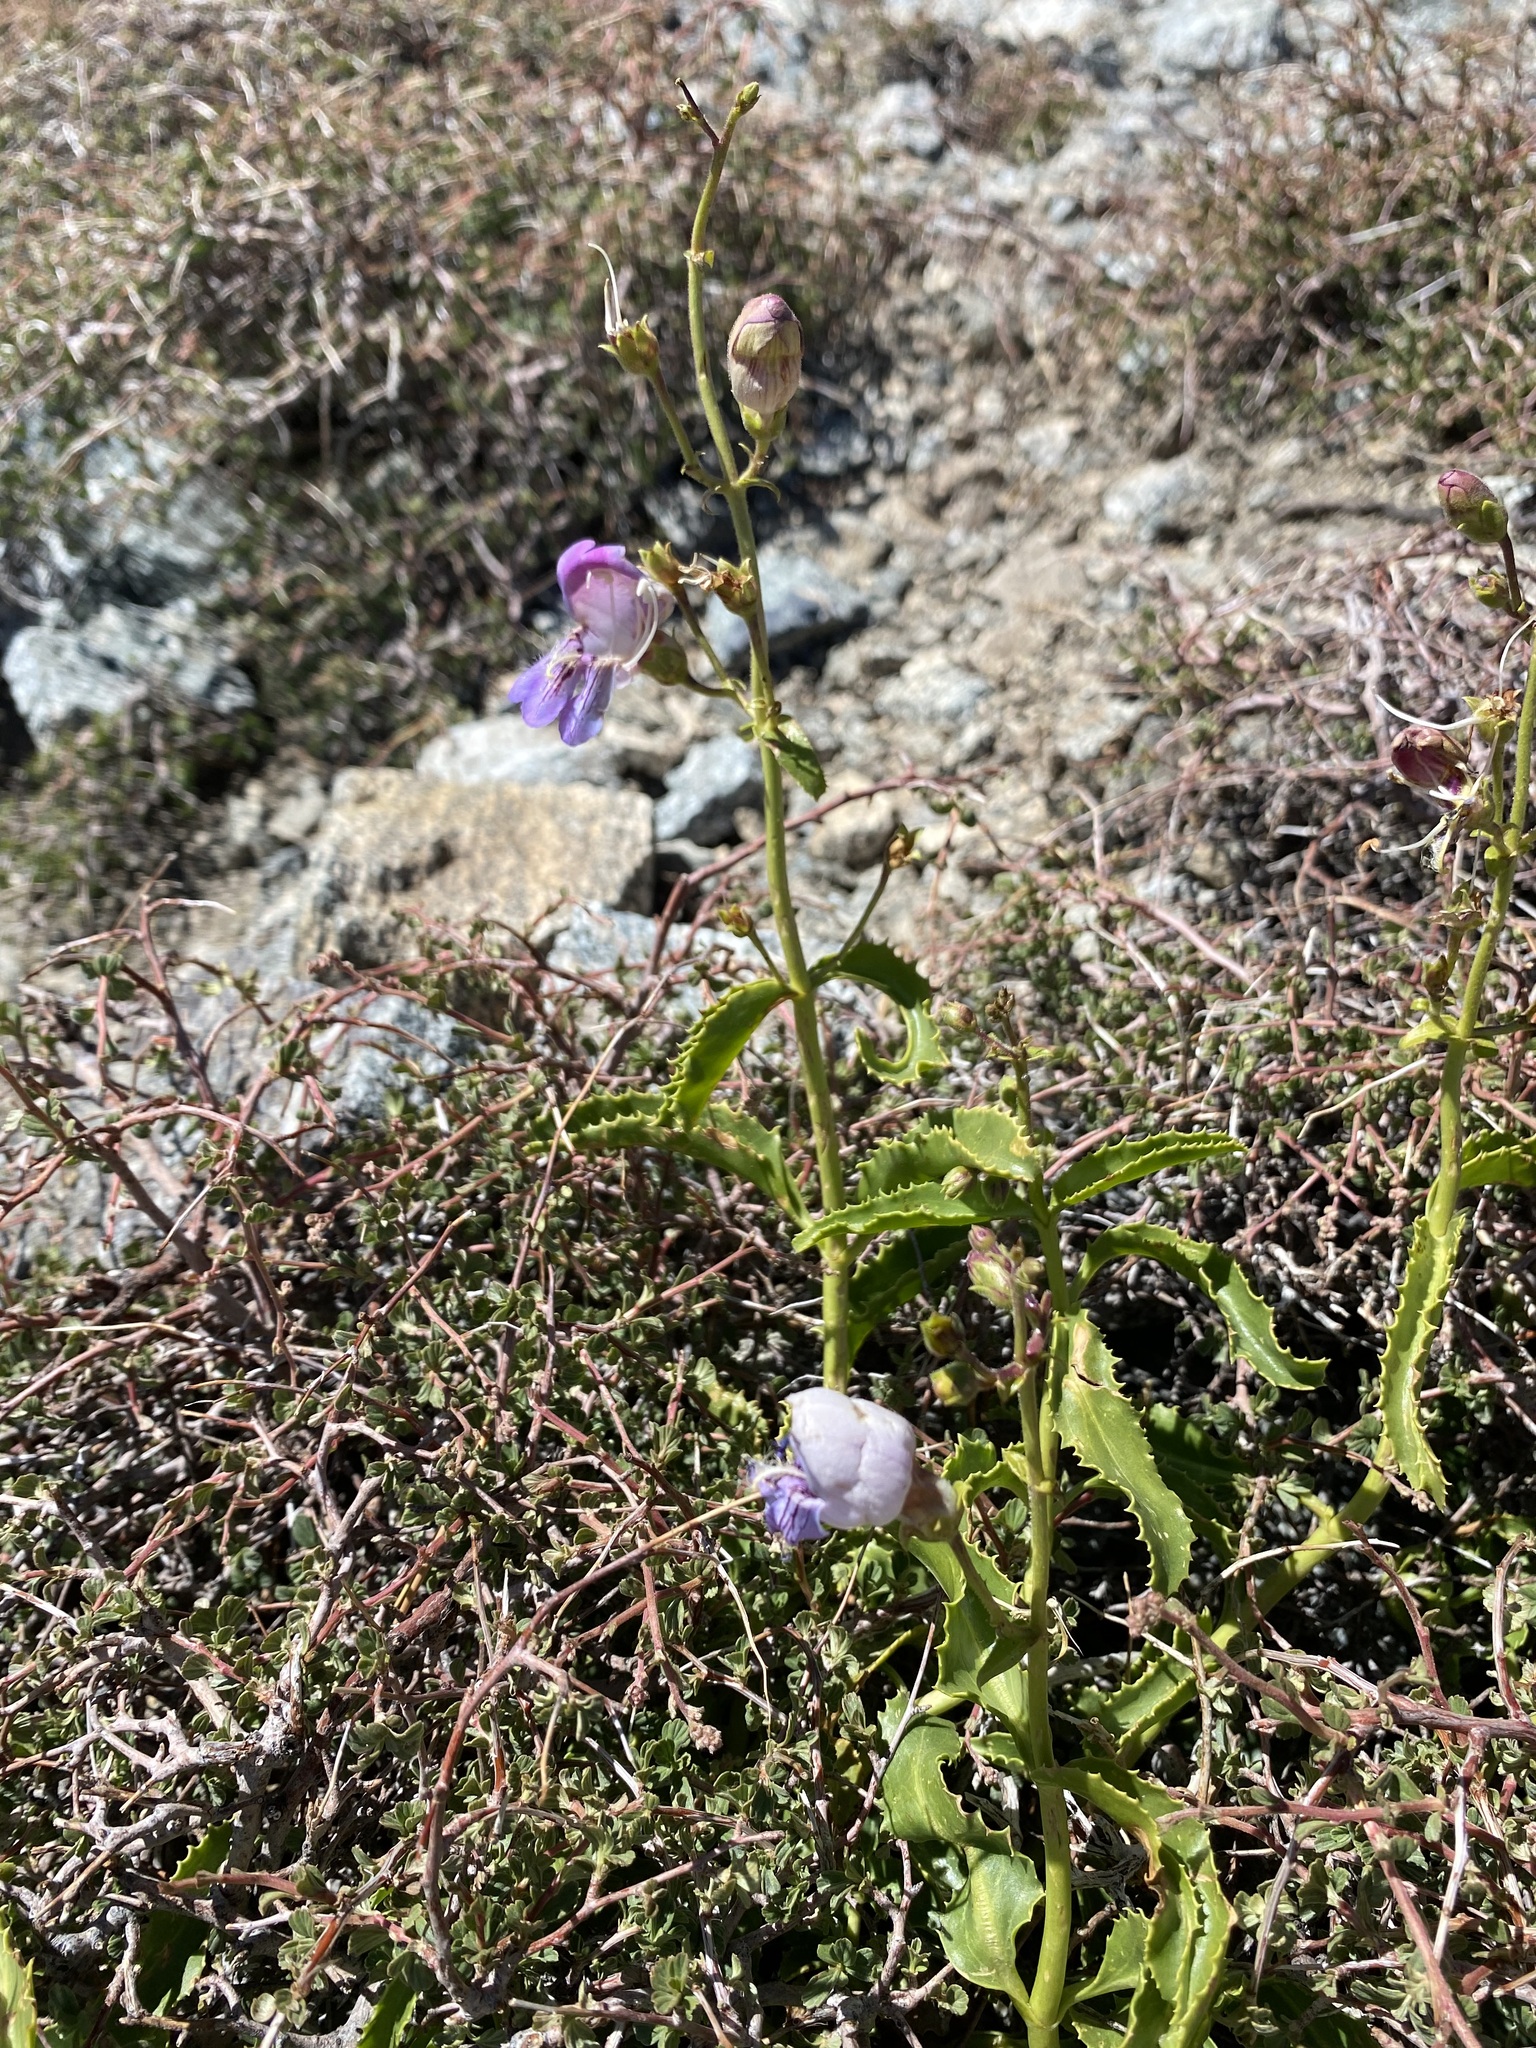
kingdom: Plantae
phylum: Tracheophyta
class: Magnoliopsida
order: Lamiales
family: Plantaginaceae
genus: Penstemon
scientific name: Penstemon grinnellii
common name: Grinnell's beardtongue
